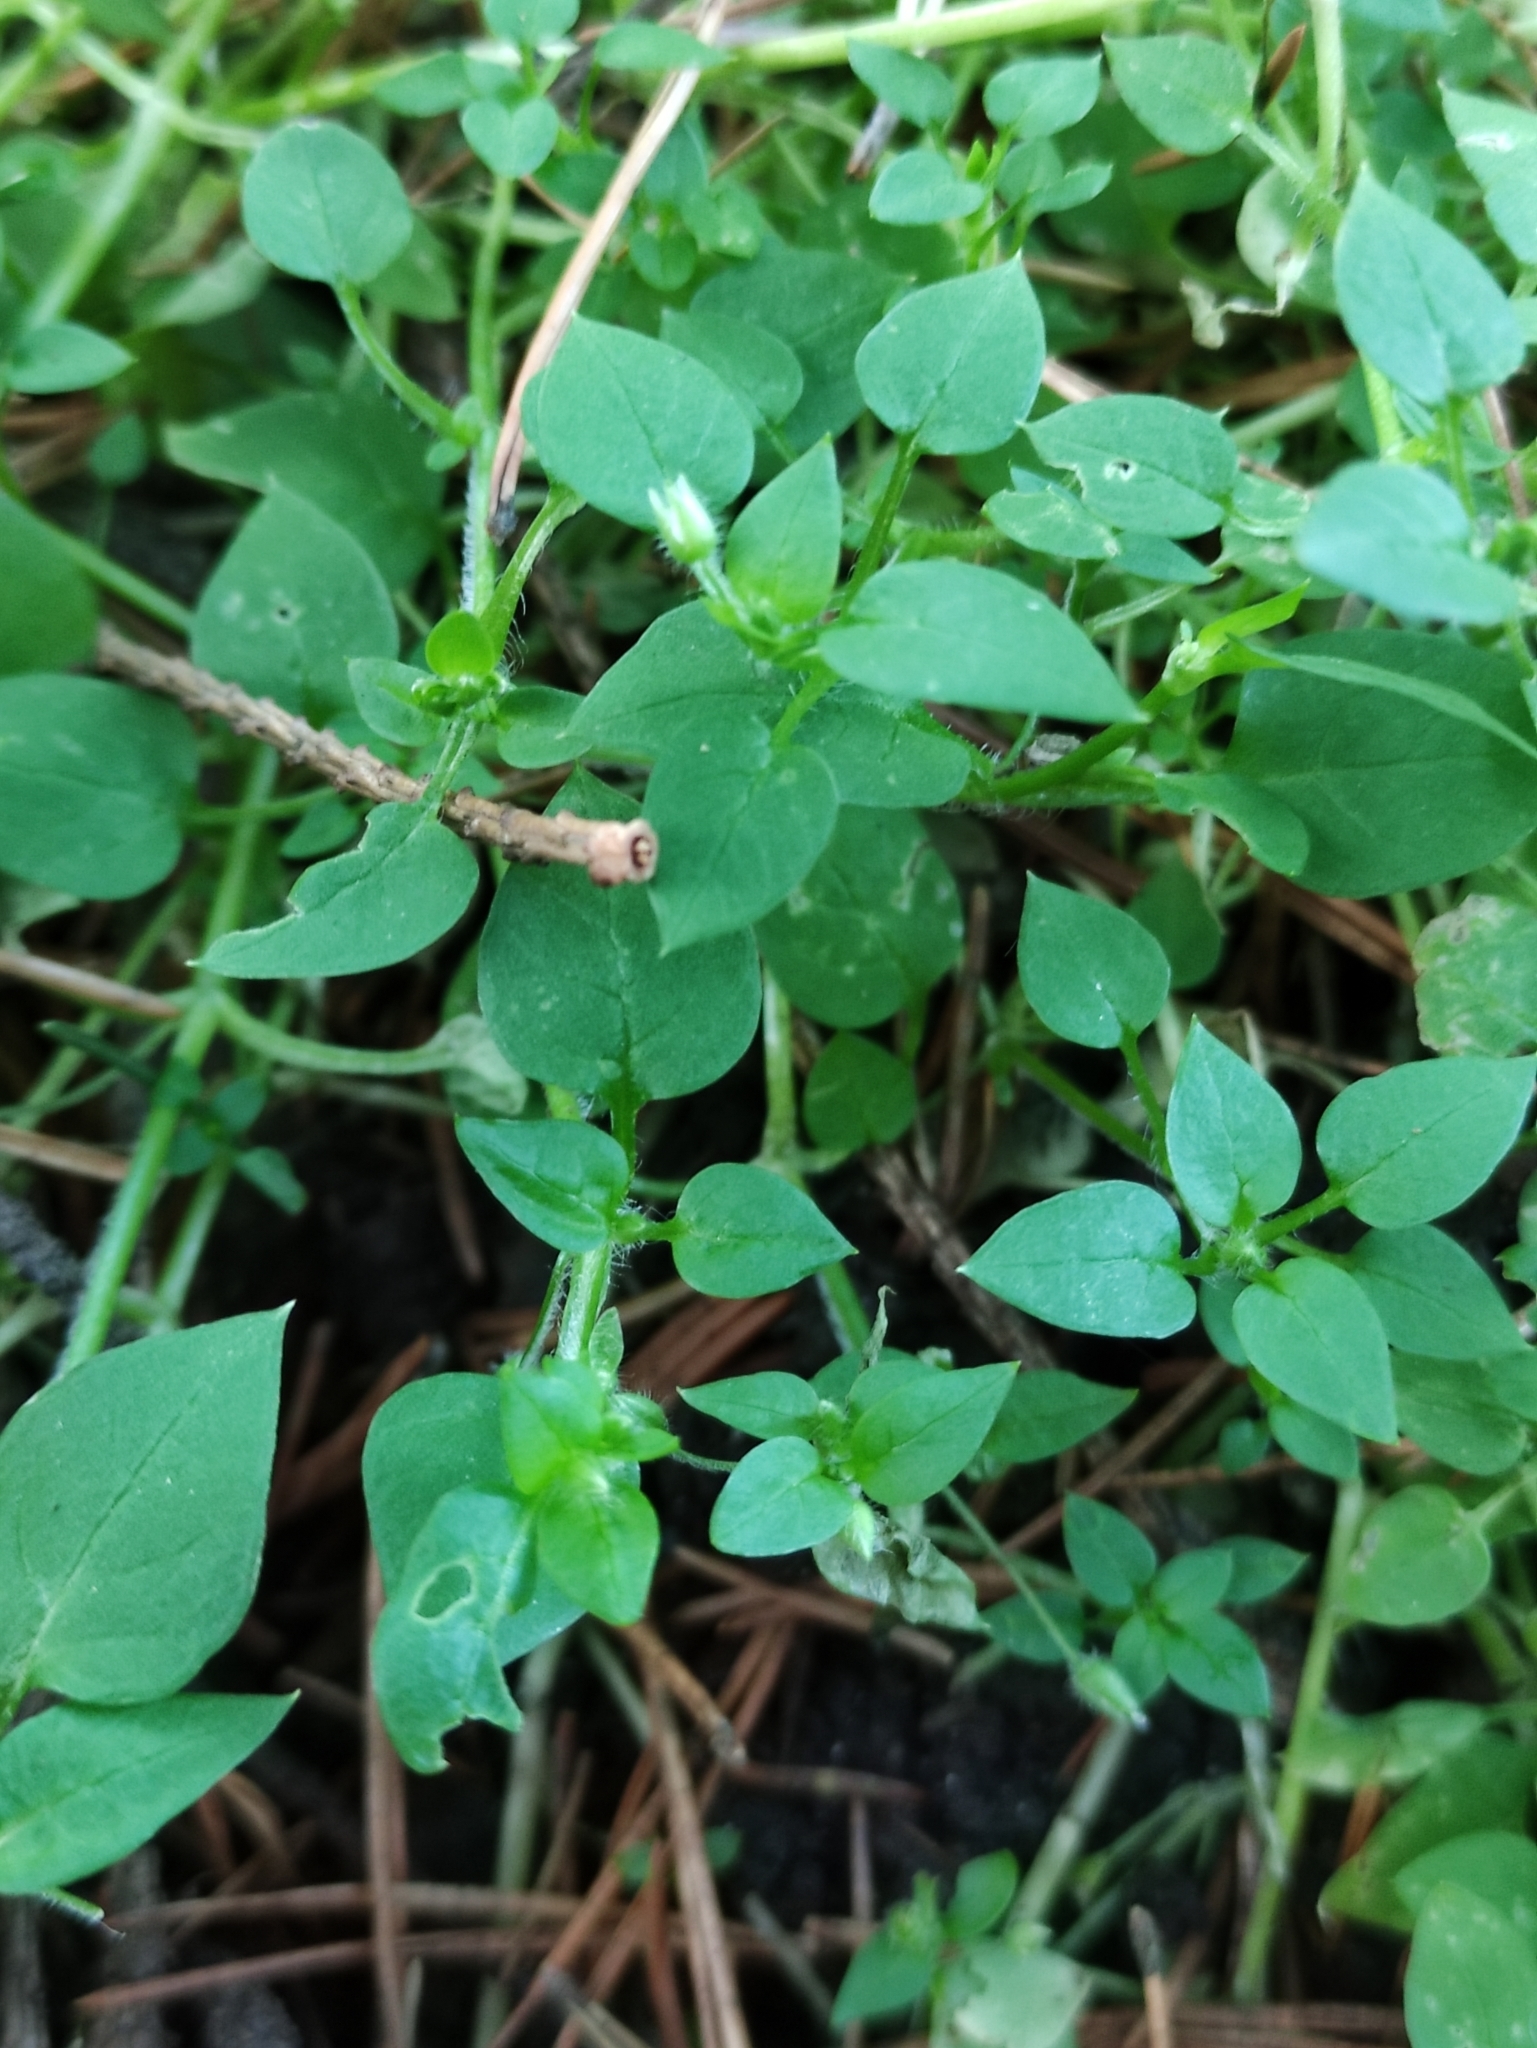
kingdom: Plantae
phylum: Tracheophyta
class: Magnoliopsida
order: Caryophyllales
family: Caryophyllaceae
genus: Stellaria
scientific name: Stellaria media
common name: Common chickweed
